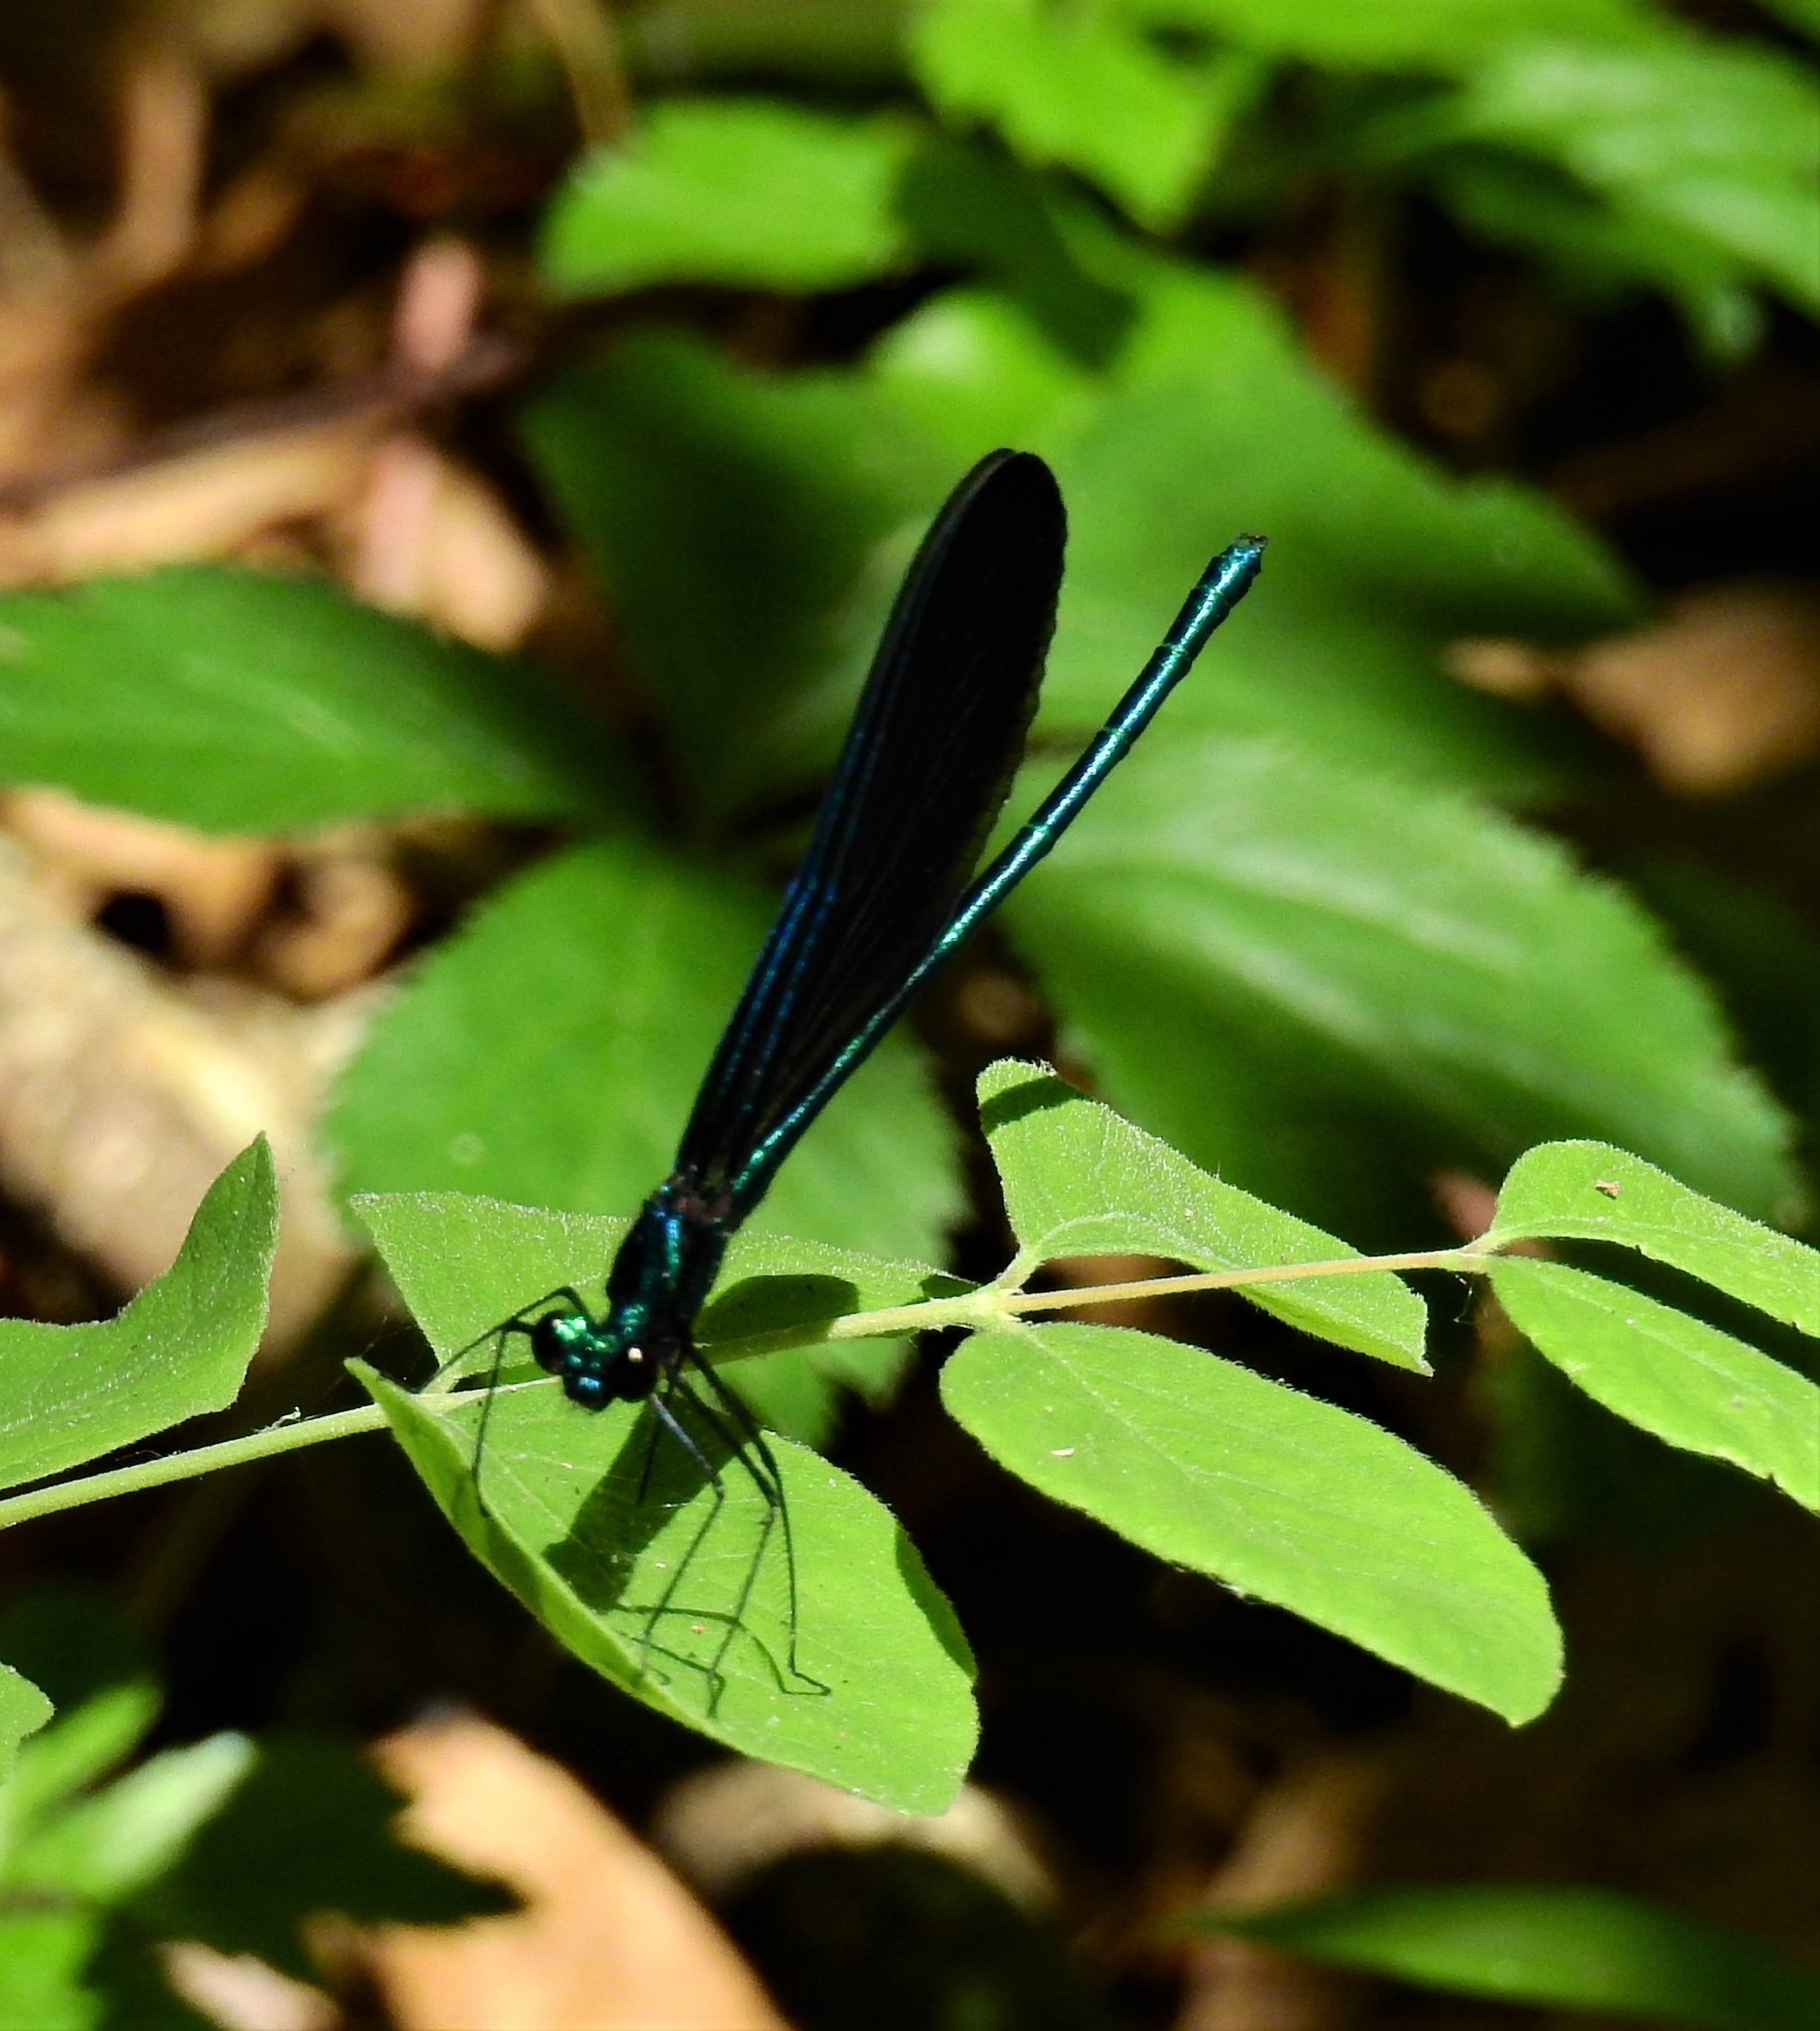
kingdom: Animalia
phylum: Arthropoda
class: Insecta
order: Odonata
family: Calopterygidae
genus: Calopteryx
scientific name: Calopteryx maculata
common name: Ebony jewelwing
